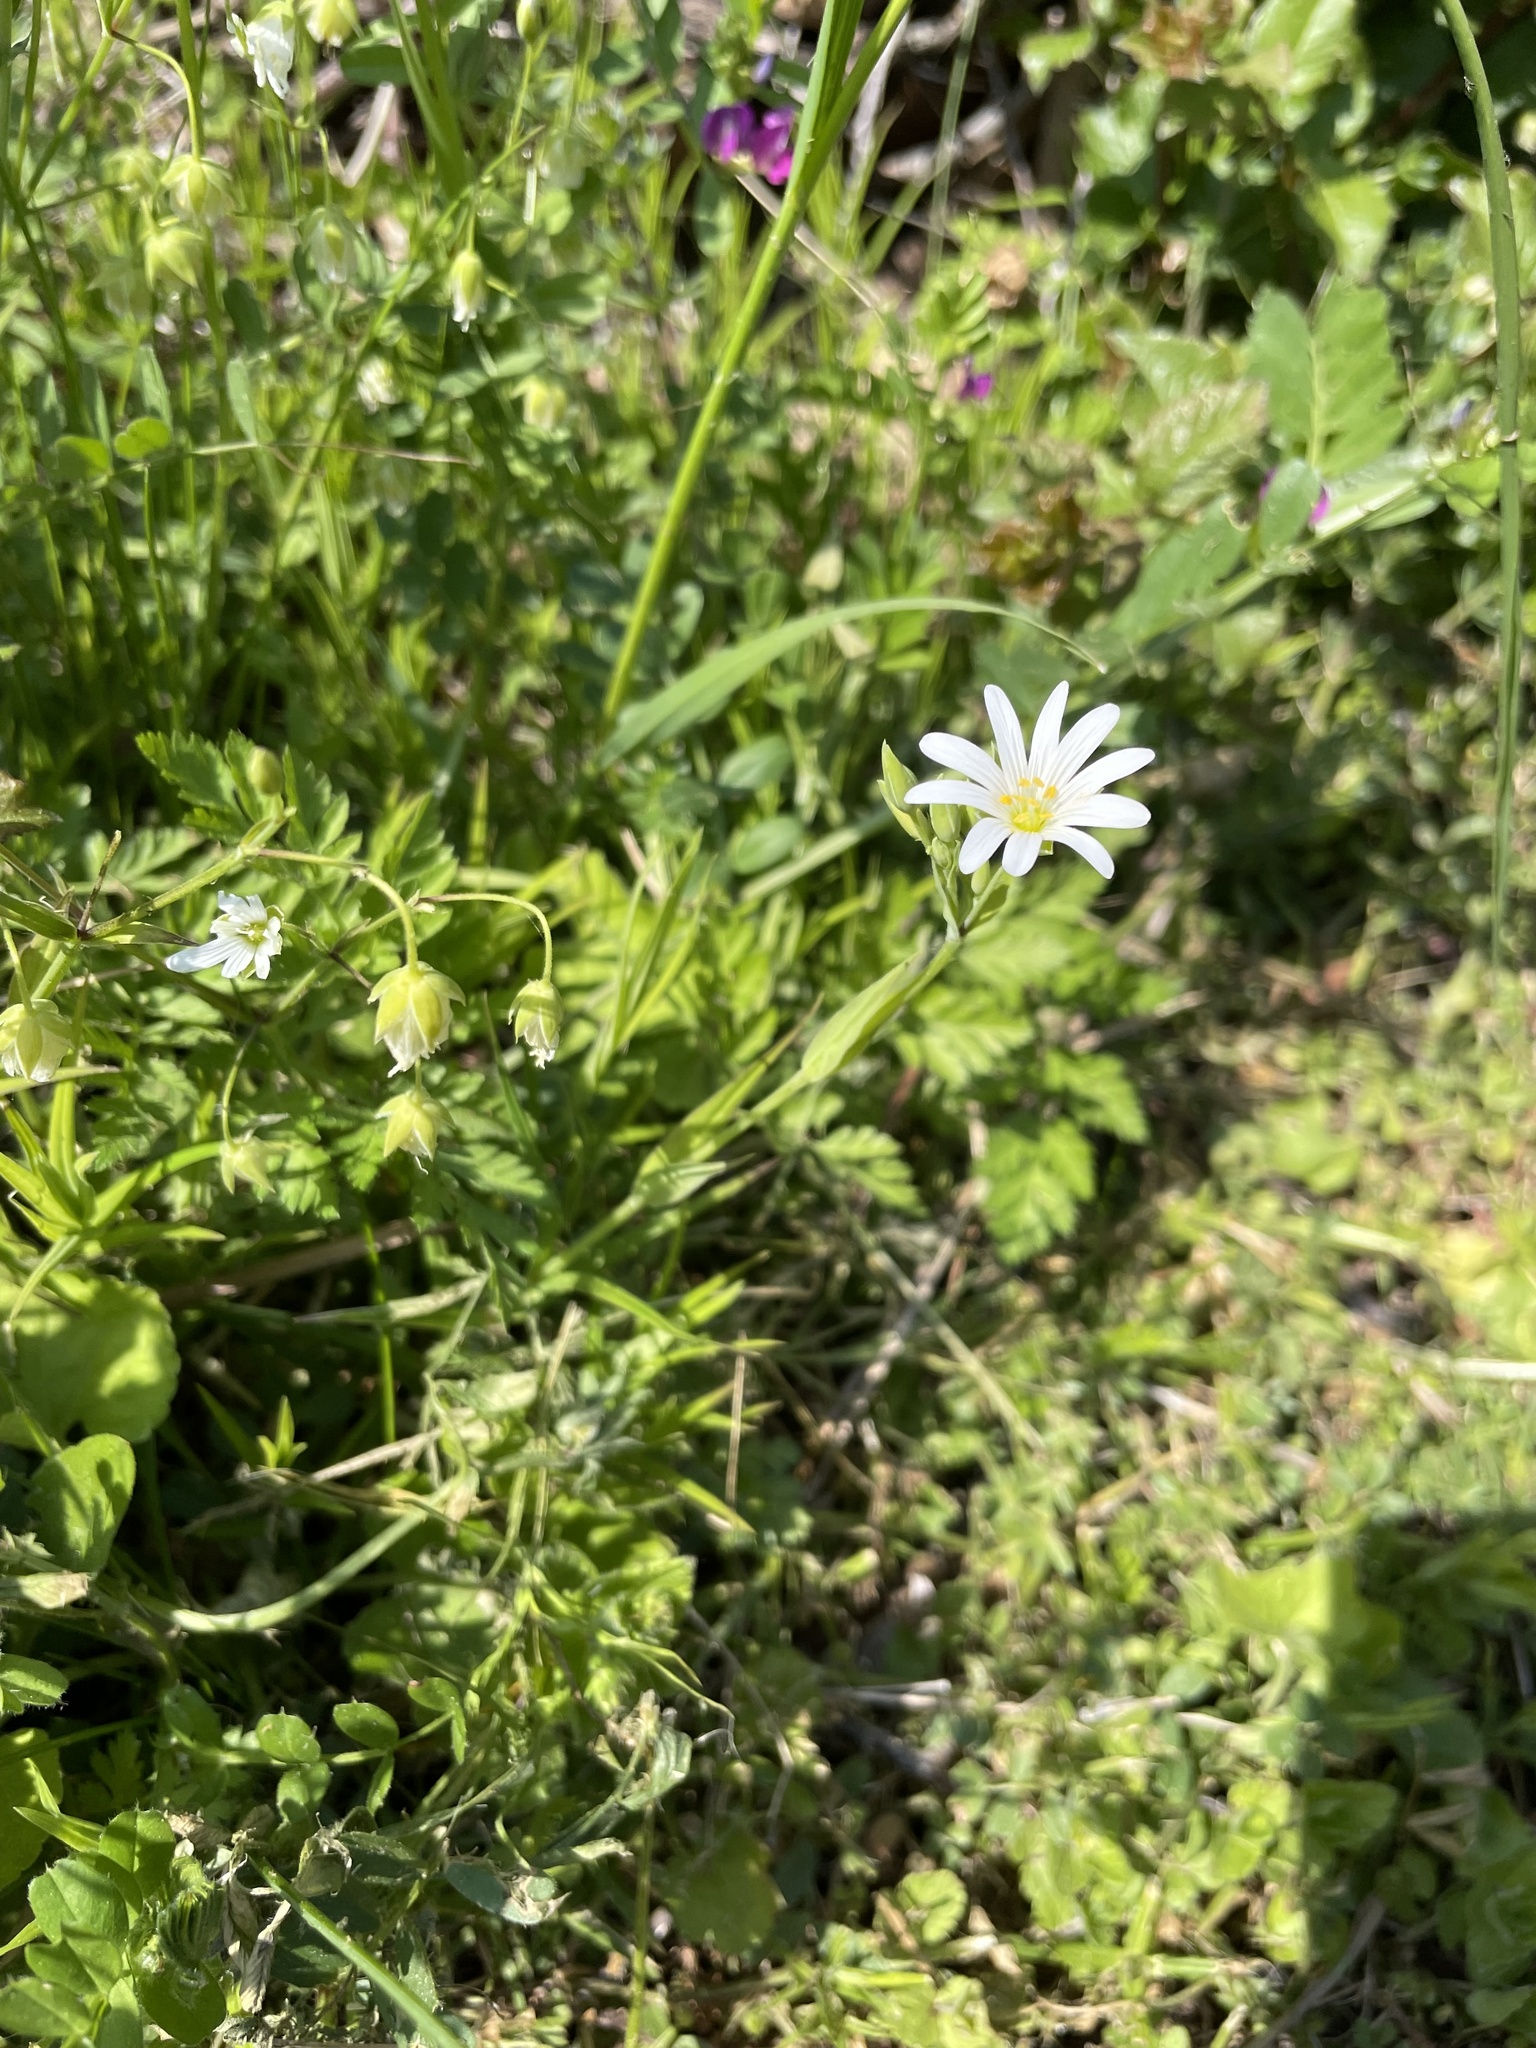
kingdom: Plantae
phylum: Tracheophyta
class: Magnoliopsida
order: Caryophyllales
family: Caryophyllaceae
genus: Rabelera
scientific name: Rabelera holostea
